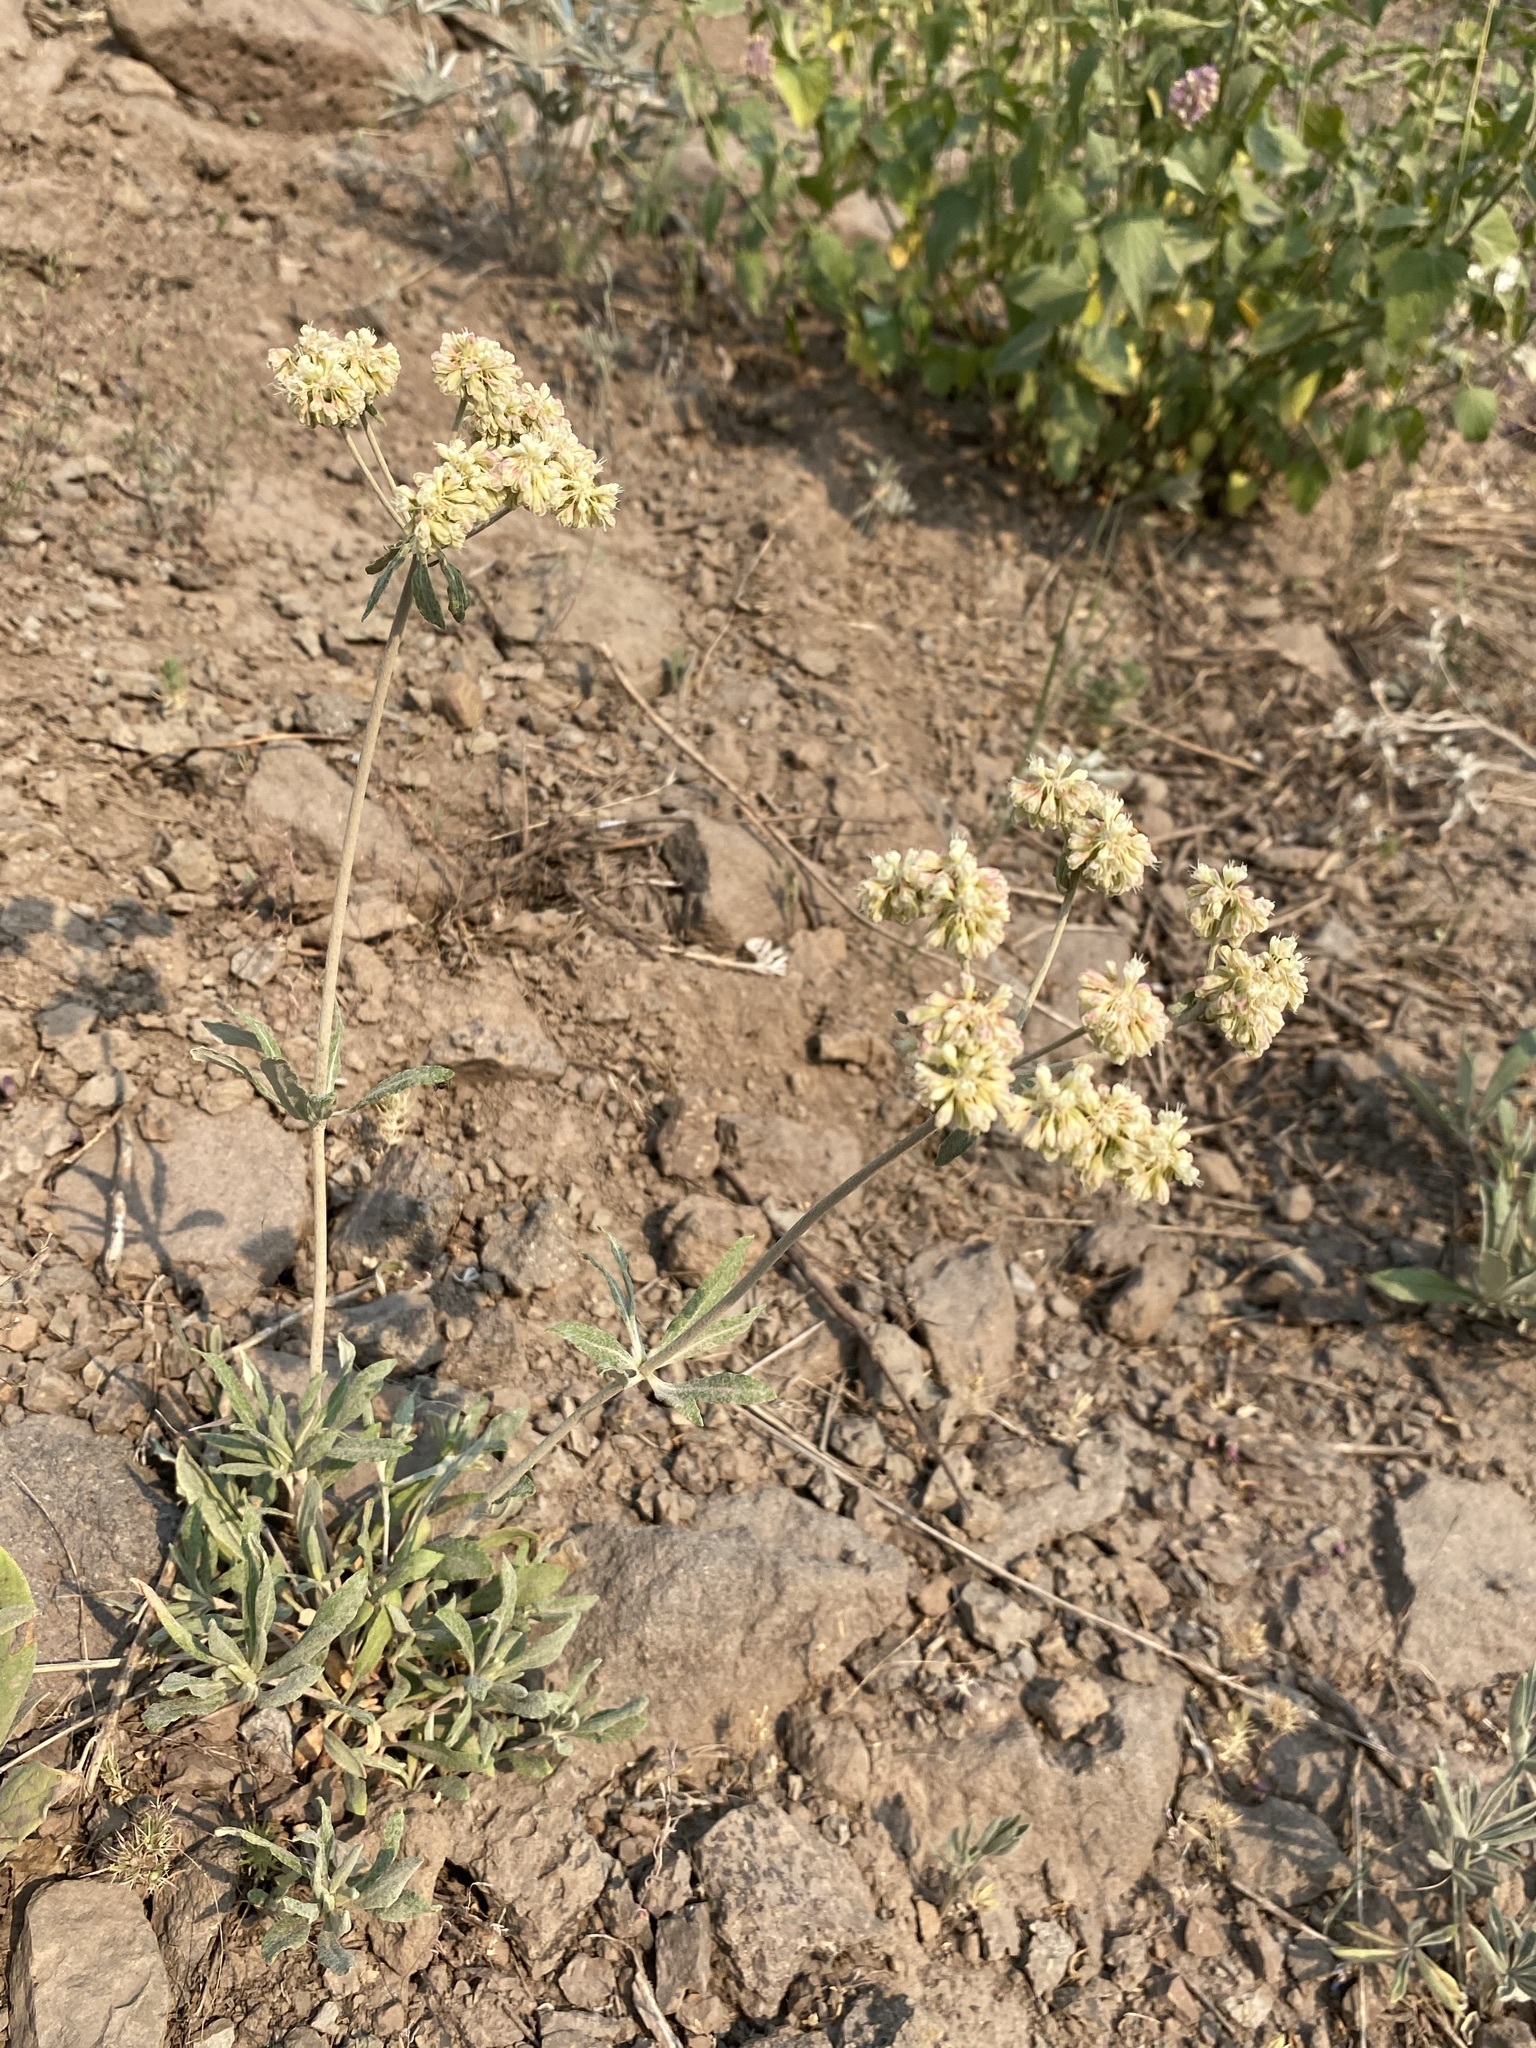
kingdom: Plantae
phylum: Tracheophyta
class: Magnoliopsida
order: Caryophyllales
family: Polygonaceae
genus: Eriogonum
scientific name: Eriogonum heracleoides
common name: Wyeth's buckwheat
